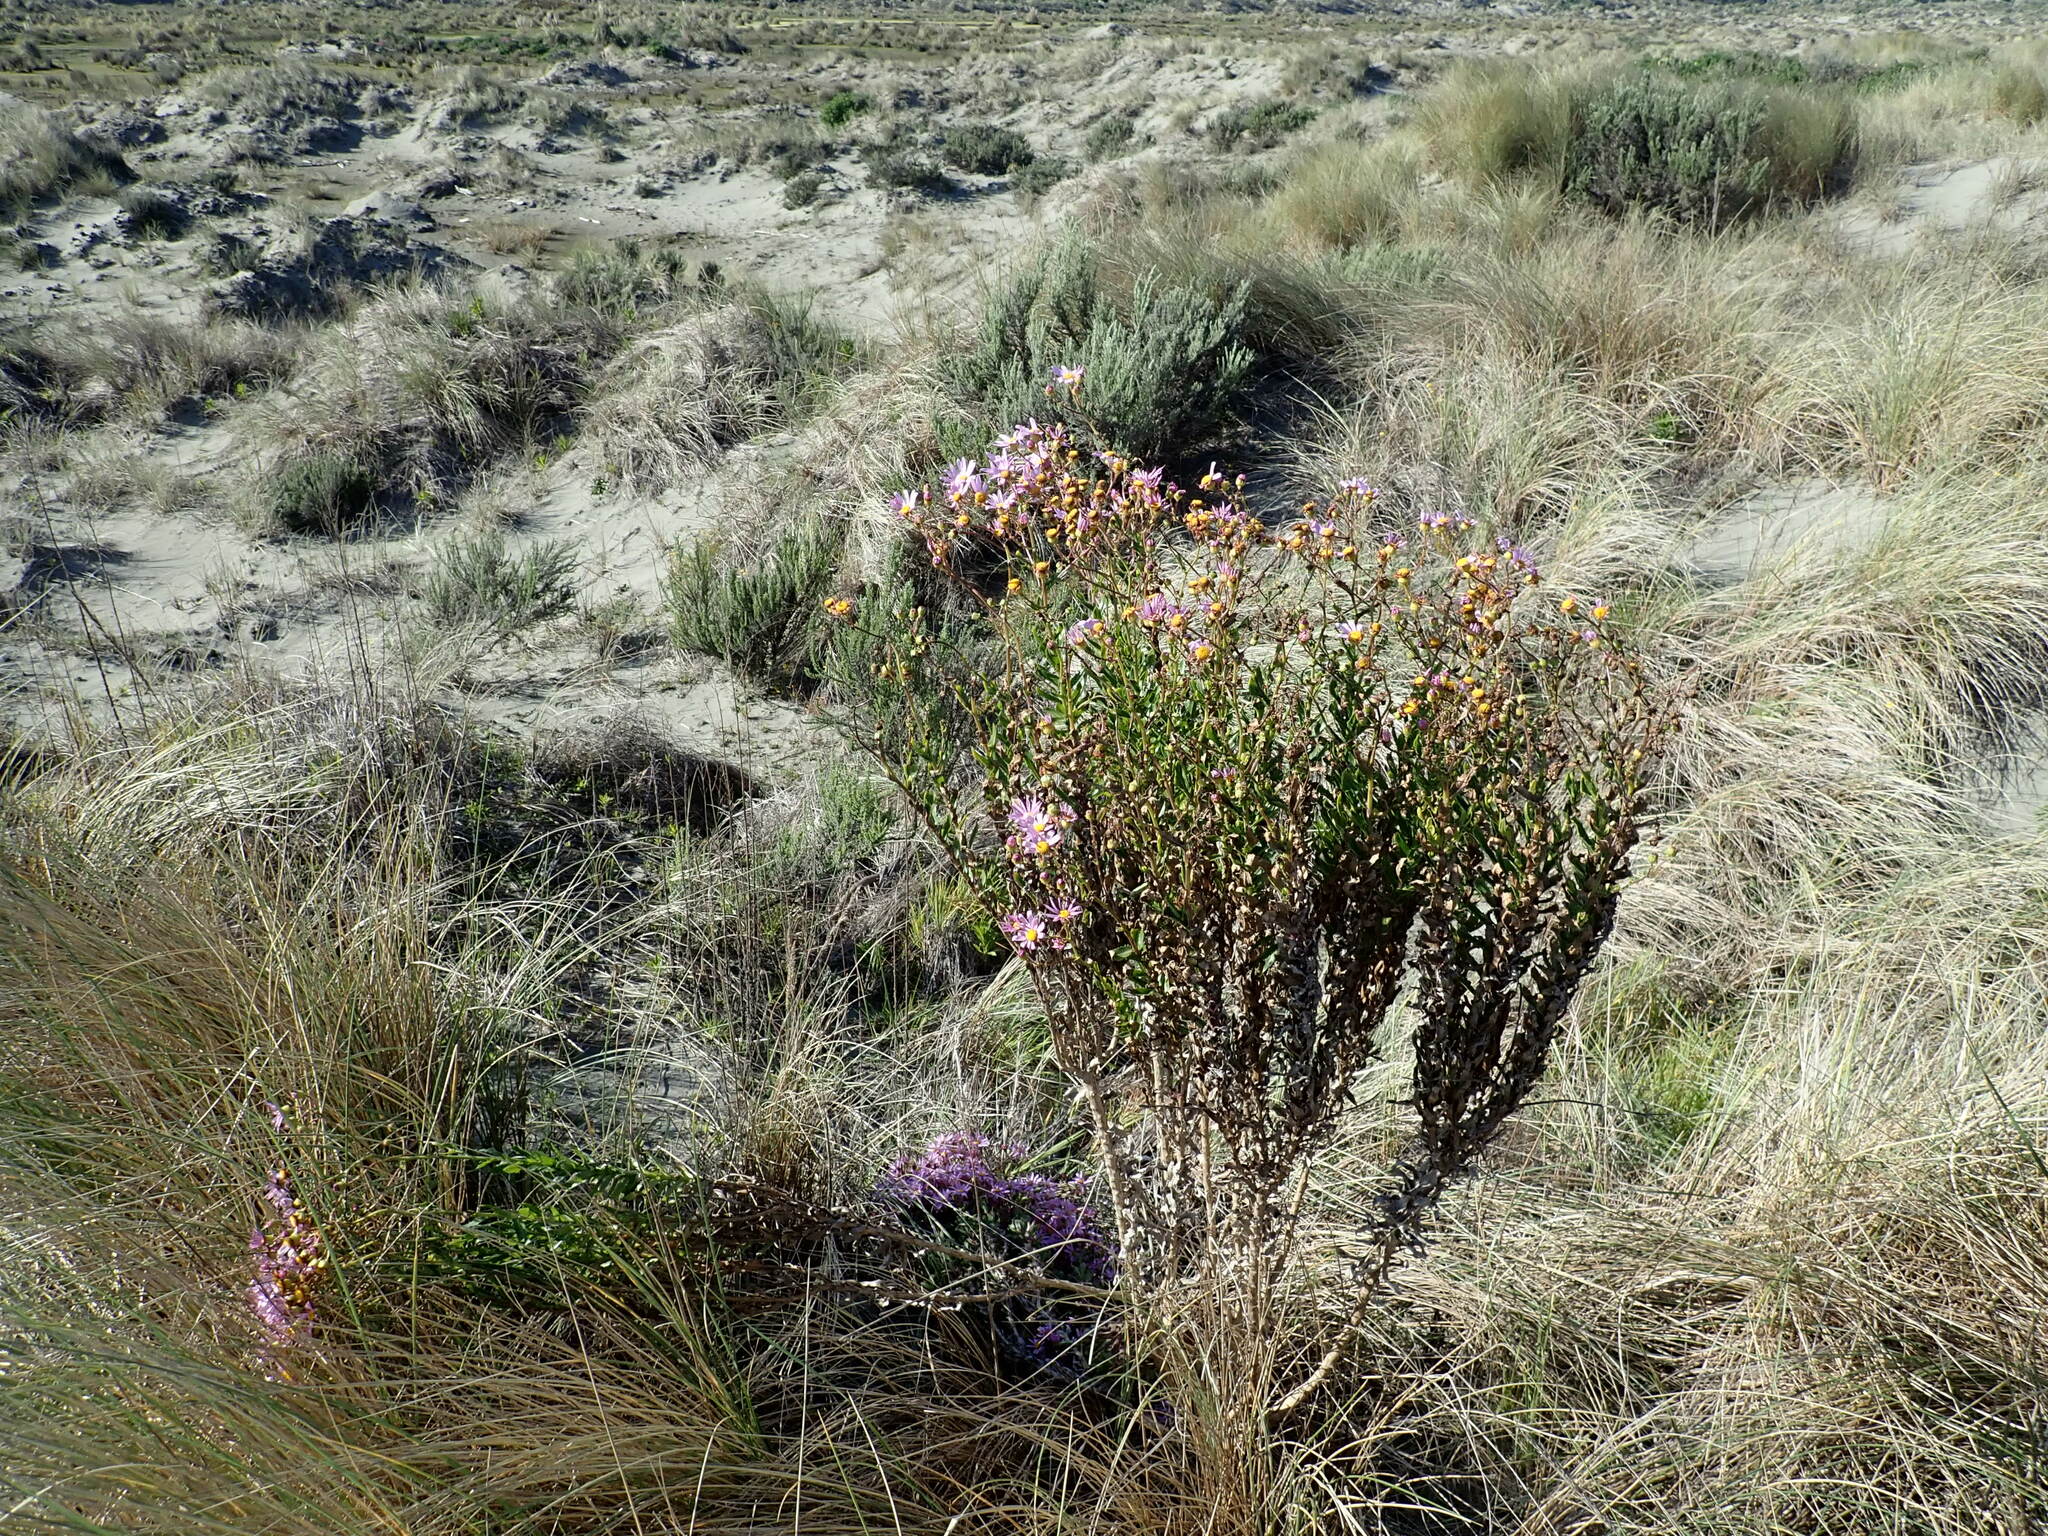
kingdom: Plantae
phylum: Tracheophyta
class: Magnoliopsida
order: Asterales
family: Asteraceae
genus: Senecio
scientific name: Senecio glastifolius
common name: Woad-leaved ragwort
